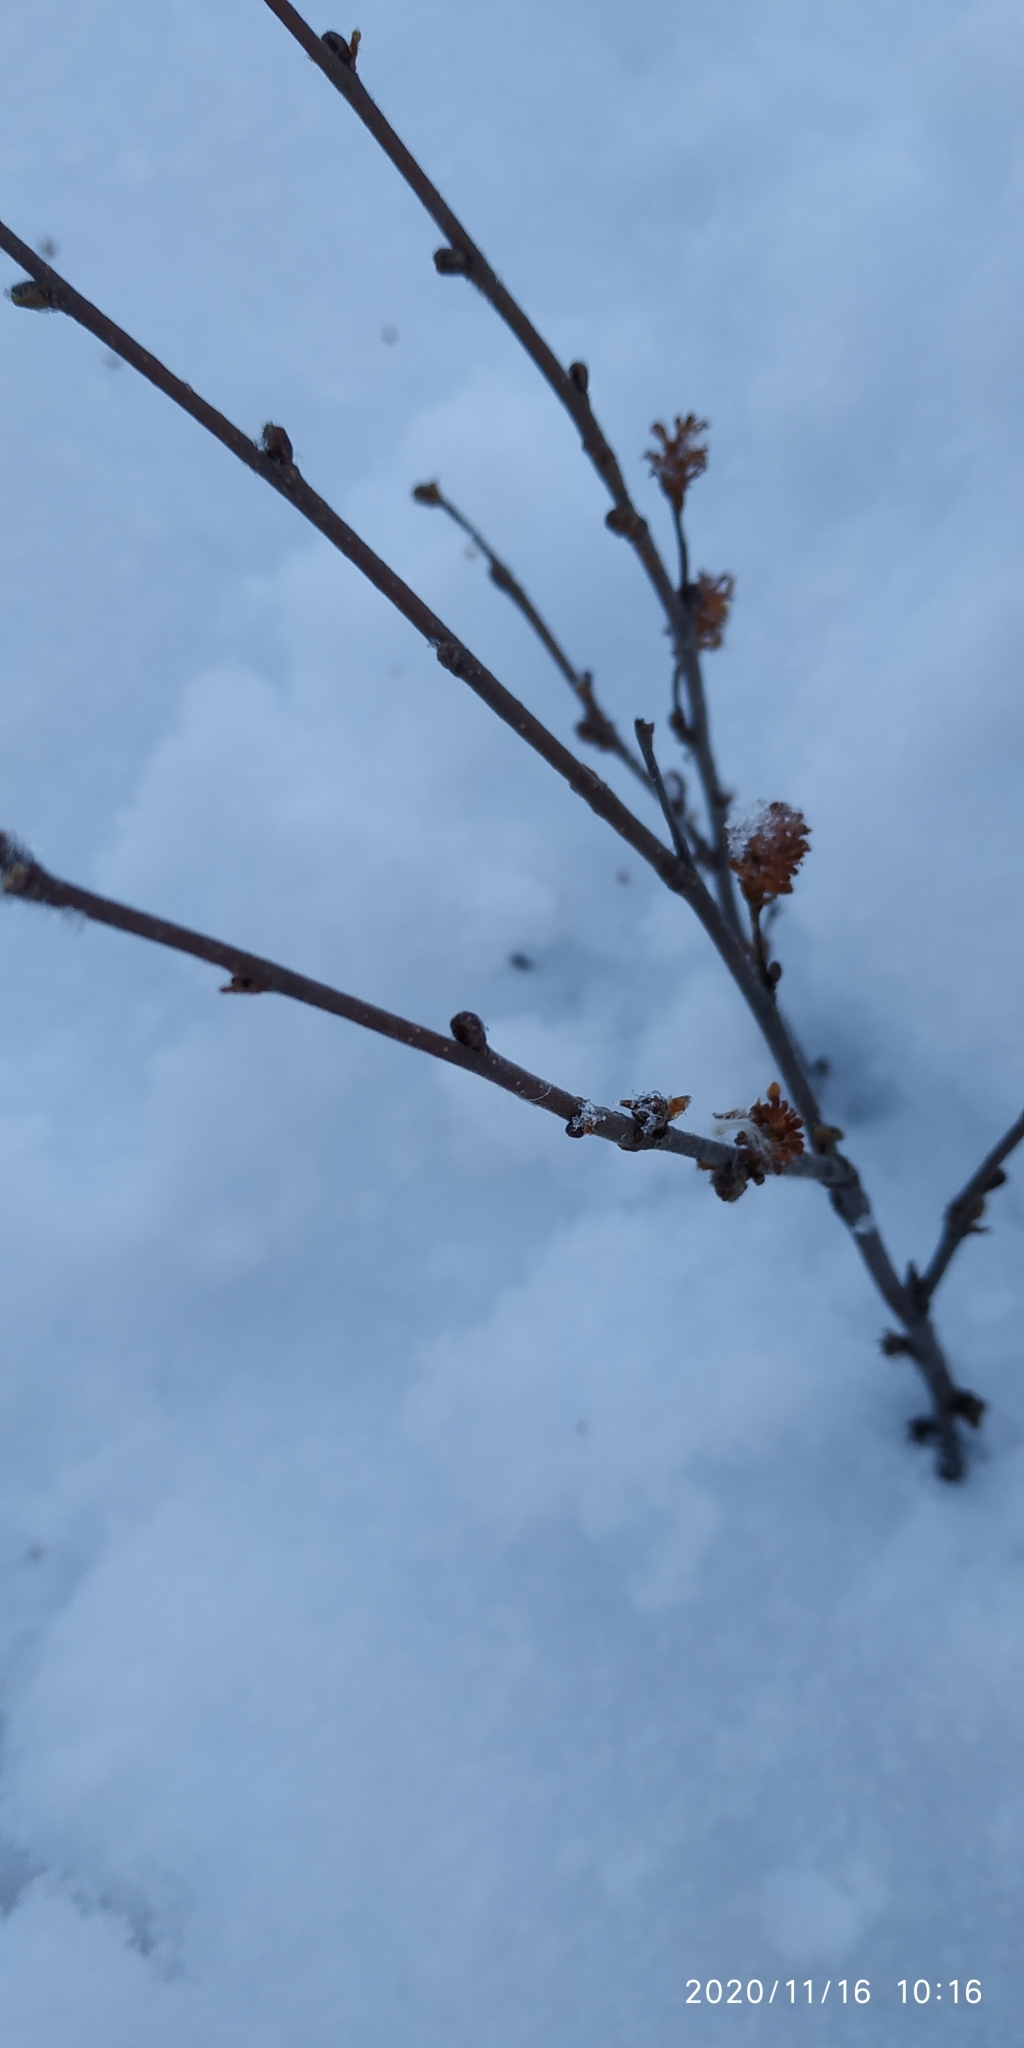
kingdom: Plantae
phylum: Tracheophyta
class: Magnoliopsida
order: Fagales
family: Betulaceae
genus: Betula
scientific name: Betula nana
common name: Arctic dwarf birch
